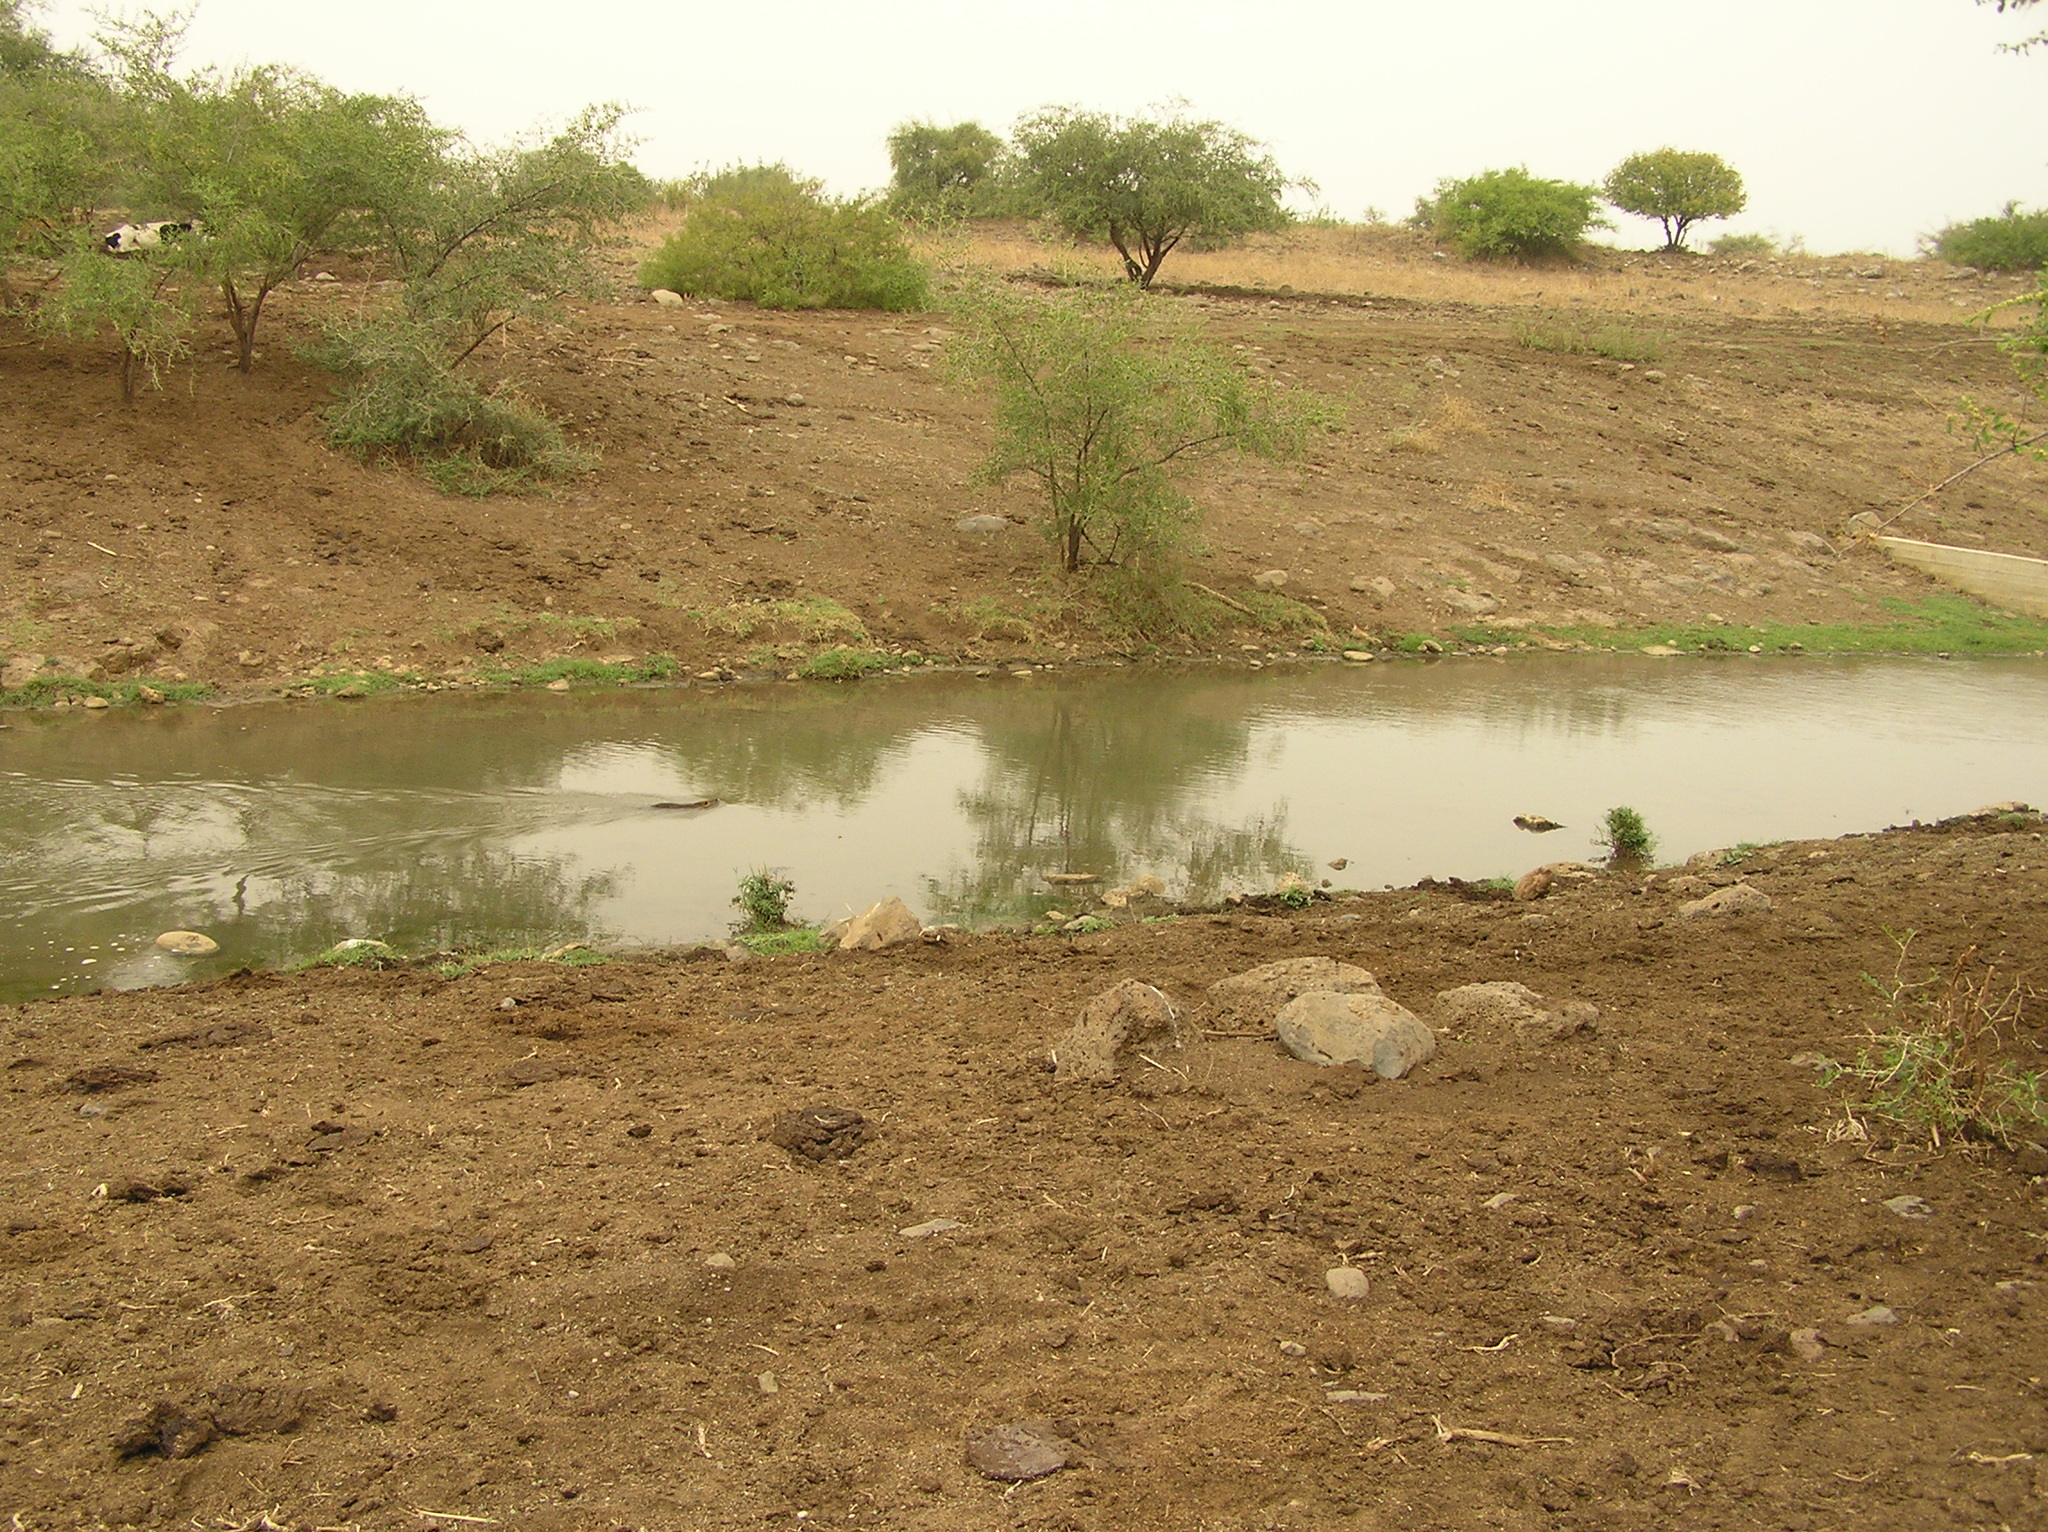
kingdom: Animalia
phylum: Chordata
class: Mammalia
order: Rodentia
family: Myocastoridae
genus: Myocastor
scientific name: Myocastor coypus
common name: Coypu
